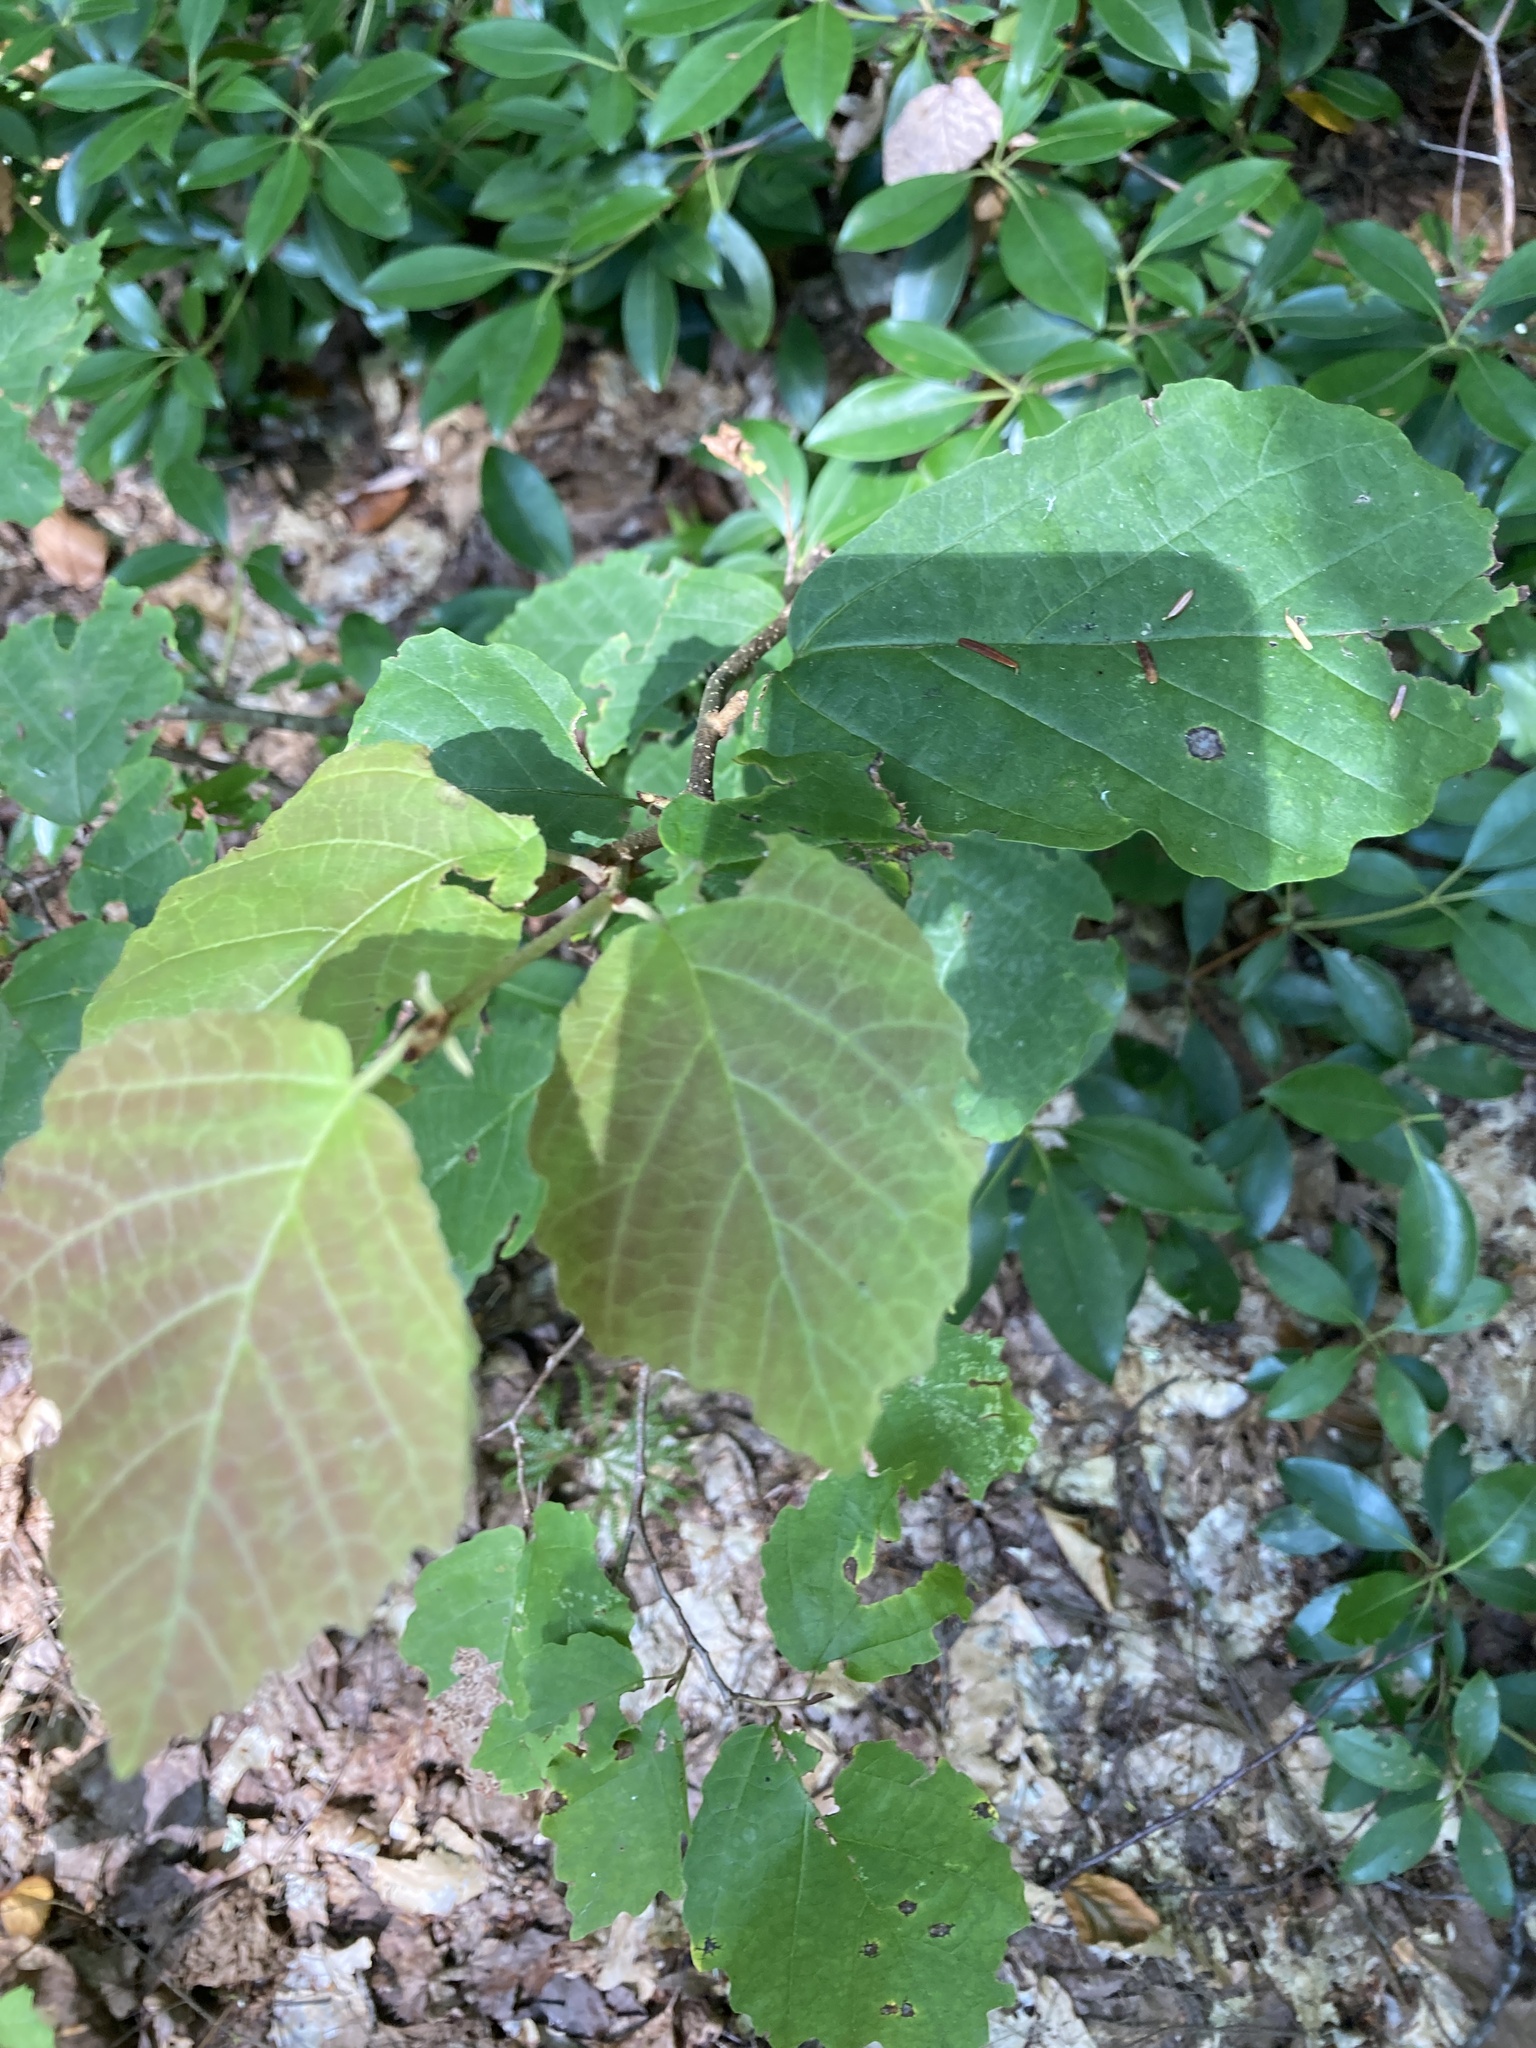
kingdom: Plantae
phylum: Tracheophyta
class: Magnoliopsida
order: Saxifragales
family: Hamamelidaceae
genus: Hamamelis
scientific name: Hamamelis virginiana
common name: Witch-hazel
